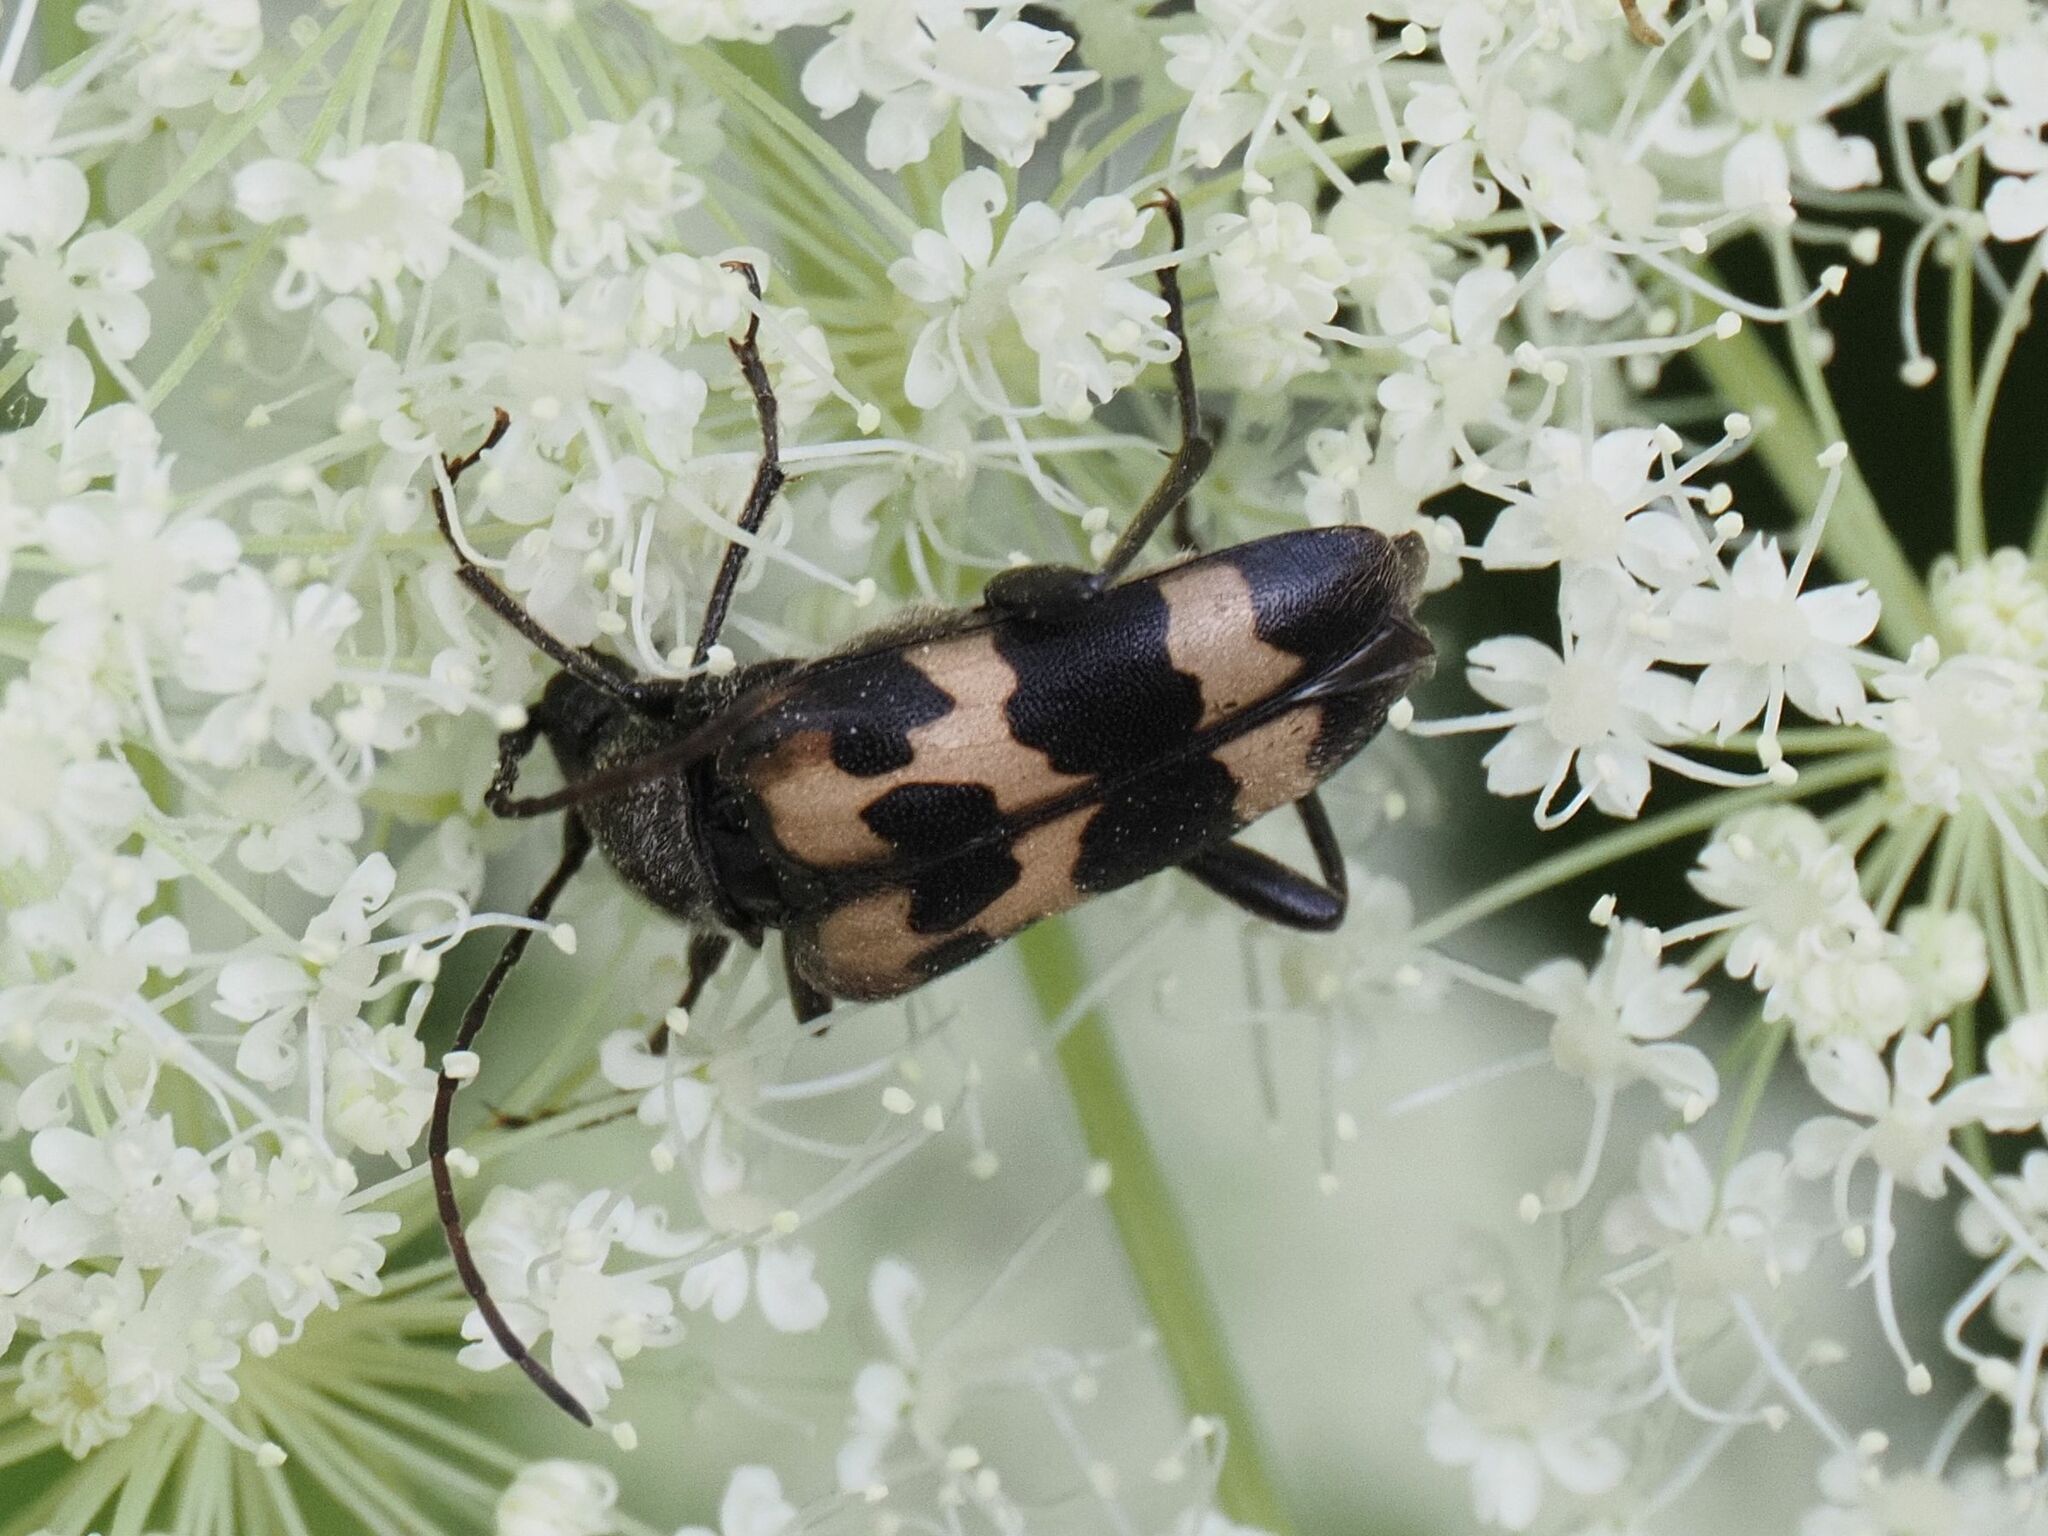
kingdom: Animalia
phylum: Arthropoda
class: Insecta
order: Coleoptera
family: Cerambycidae
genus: Judolia
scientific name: Judolia sexmaculata
